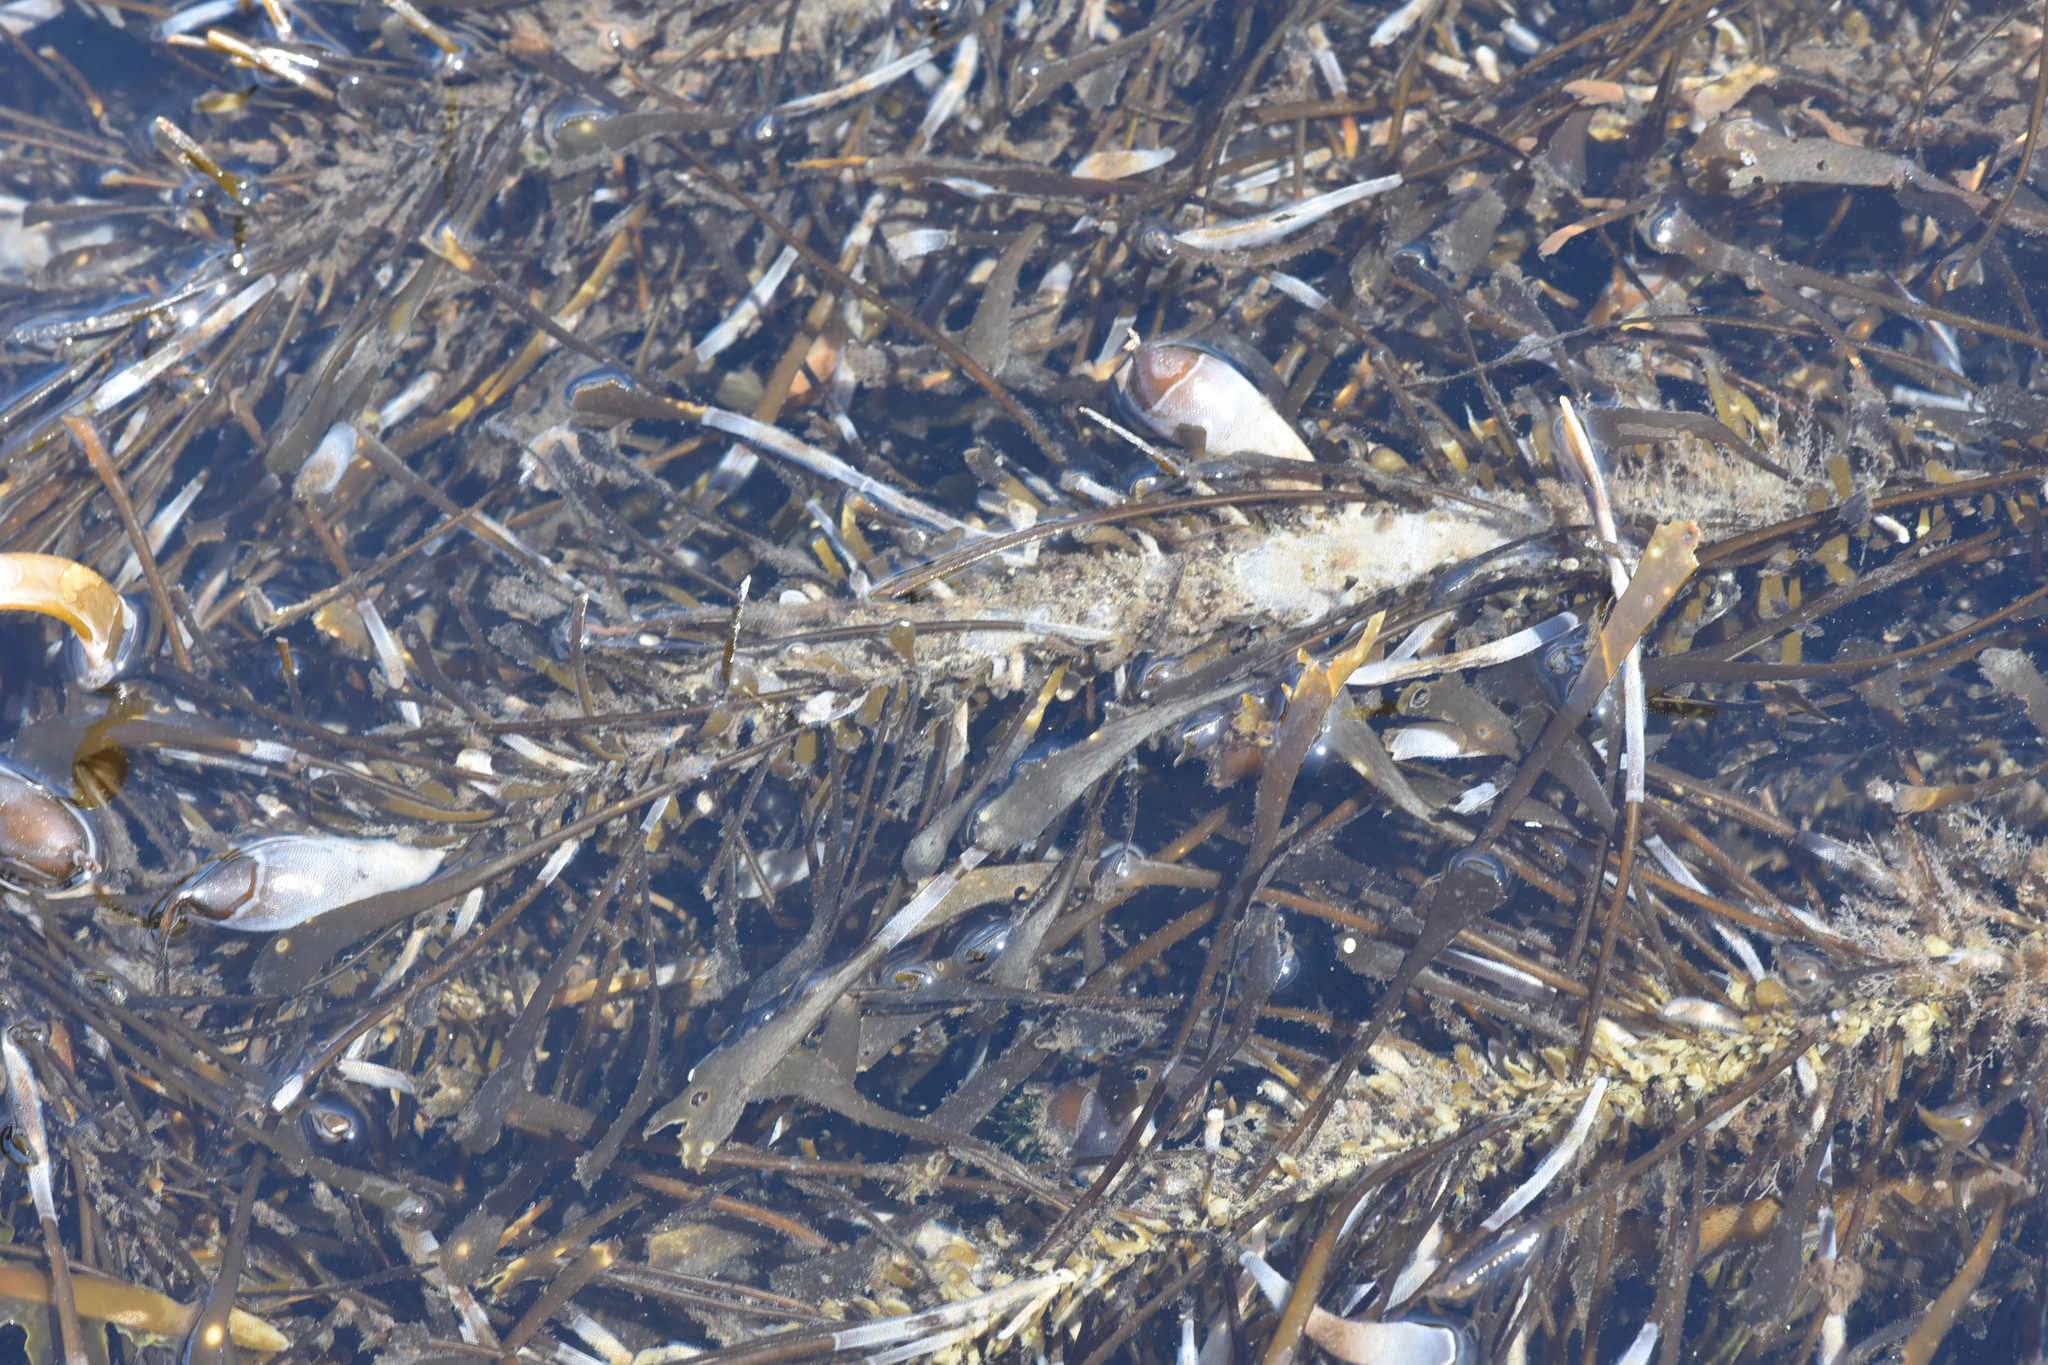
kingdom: Chromista
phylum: Ochrophyta
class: Phaeophyceae
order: Laminariales
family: Lessoniaceae
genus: Egregia
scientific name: Egregia menziesii
